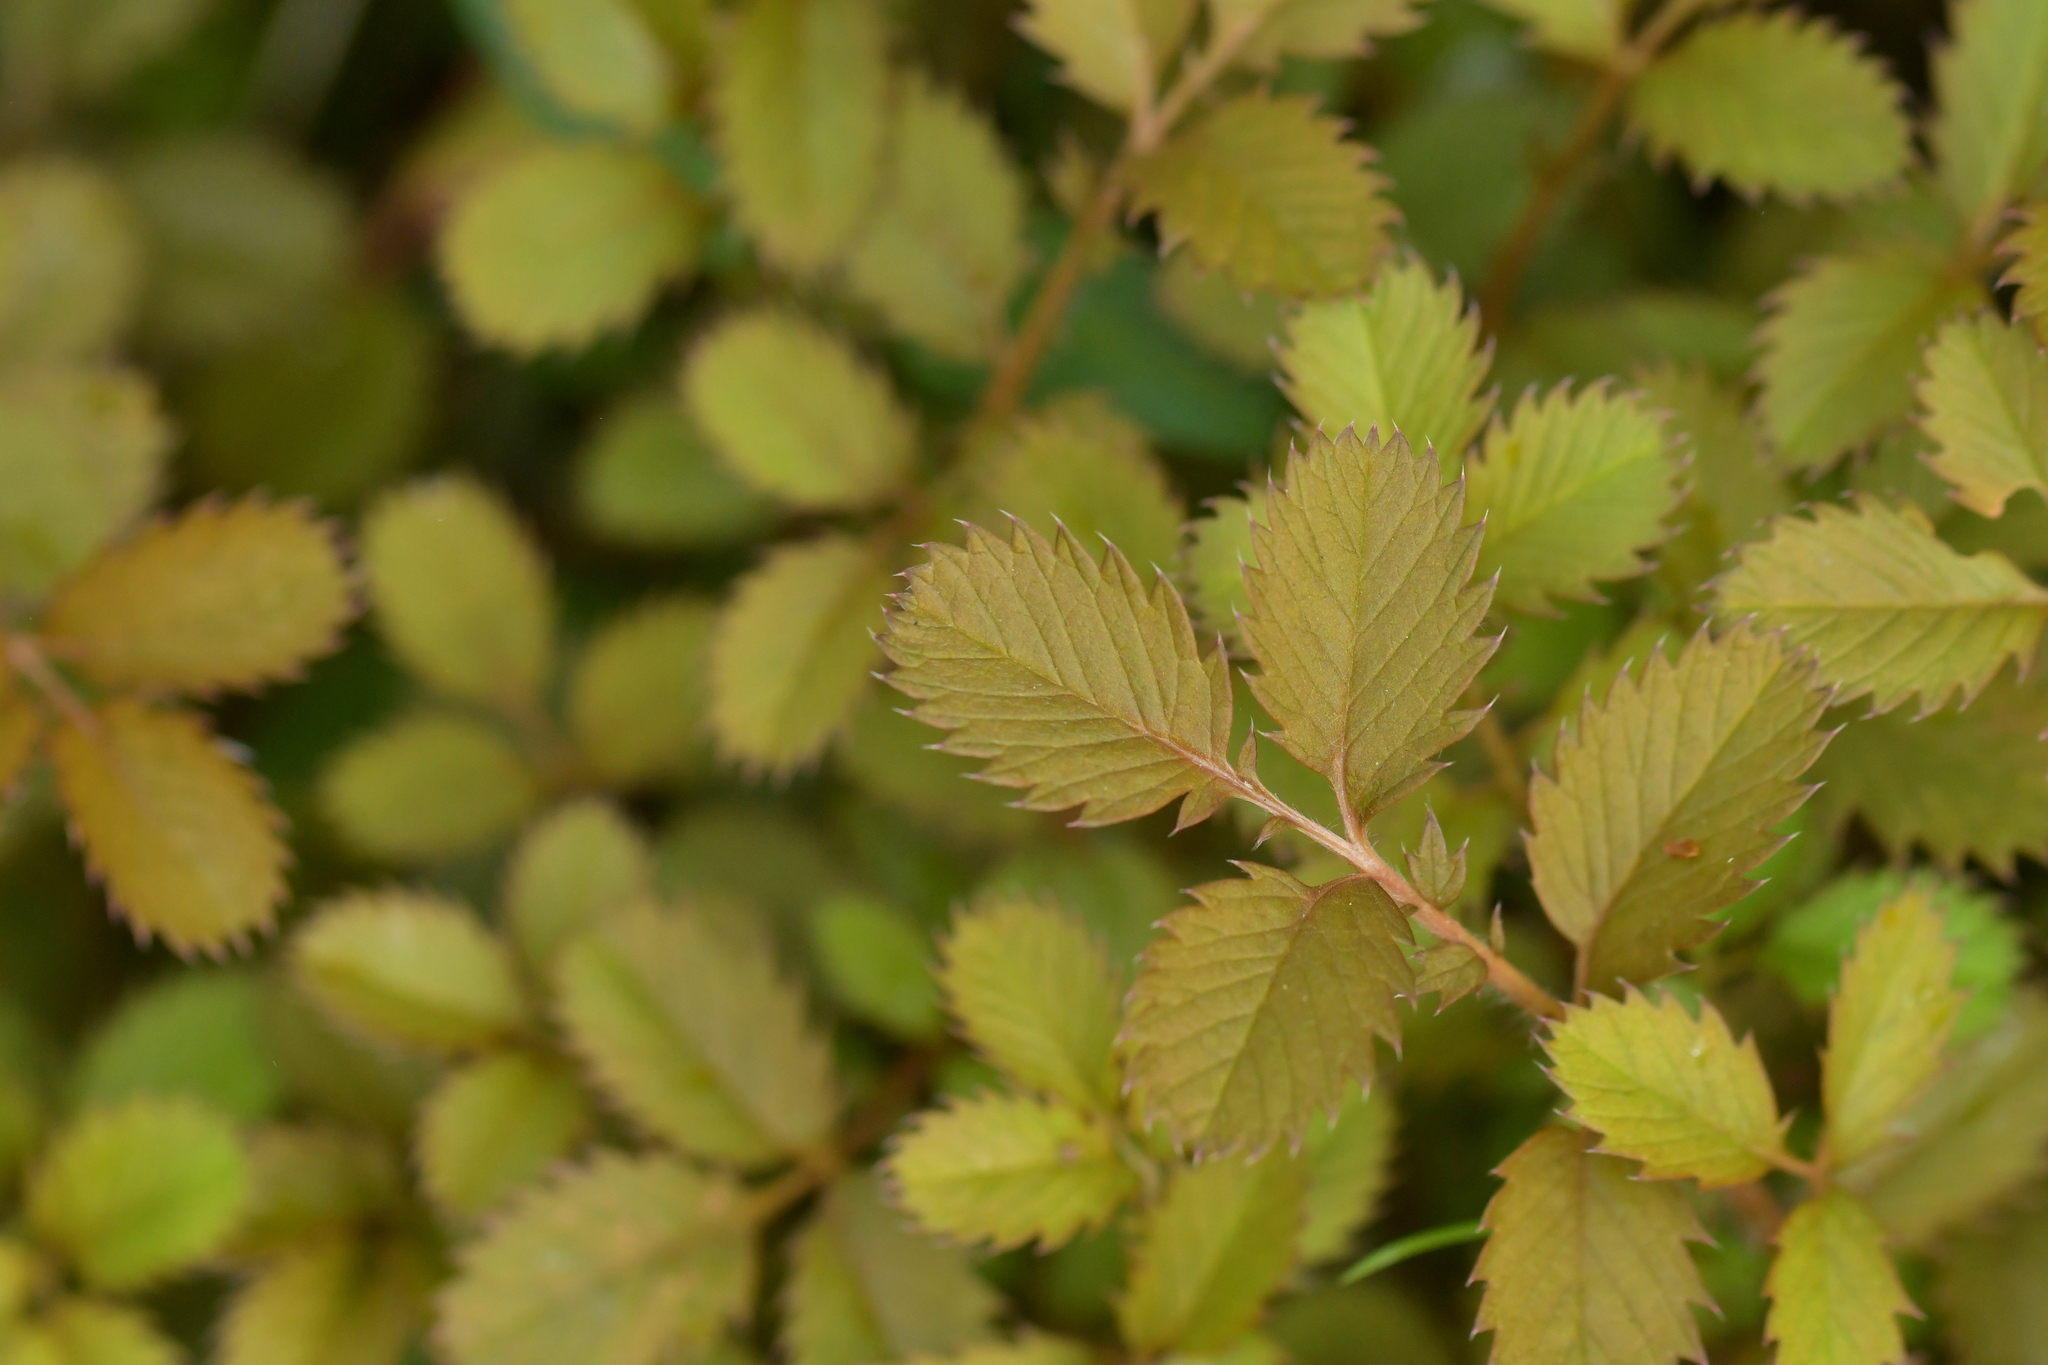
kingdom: Plantae
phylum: Tracheophyta
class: Magnoliopsida
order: Rosales
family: Rosaceae
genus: Argentina
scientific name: Argentina anserinoides
